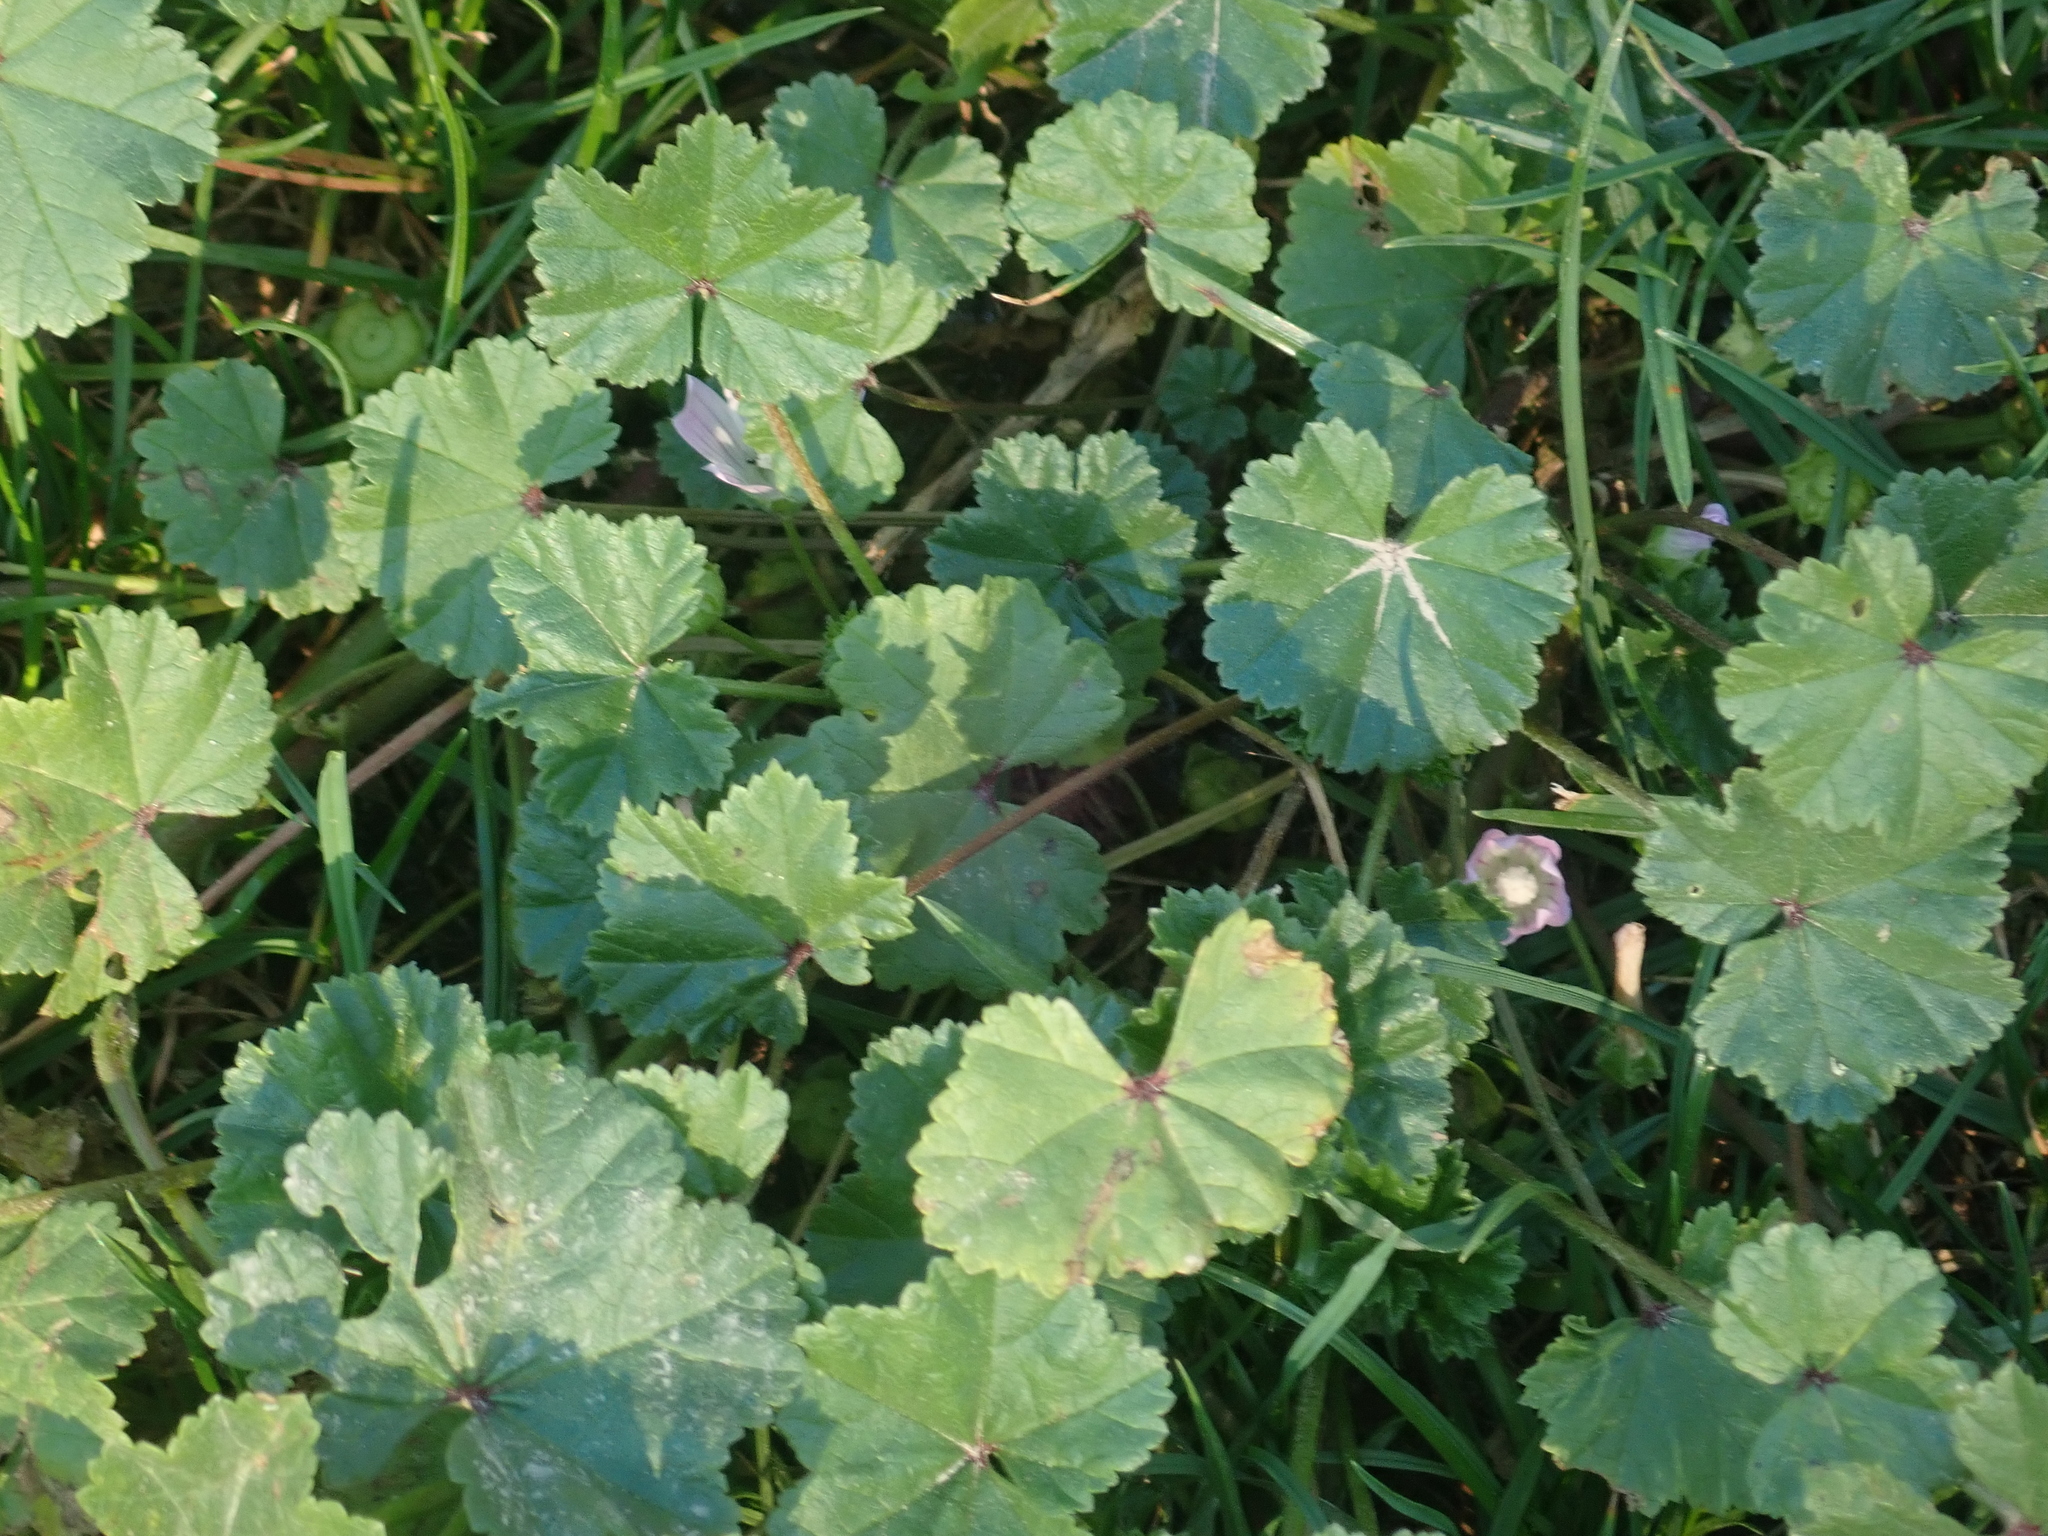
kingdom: Plantae
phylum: Tracheophyta
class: Magnoliopsida
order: Malvales
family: Malvaceae
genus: Malva
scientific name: Malva neglecta
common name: Common mallow
